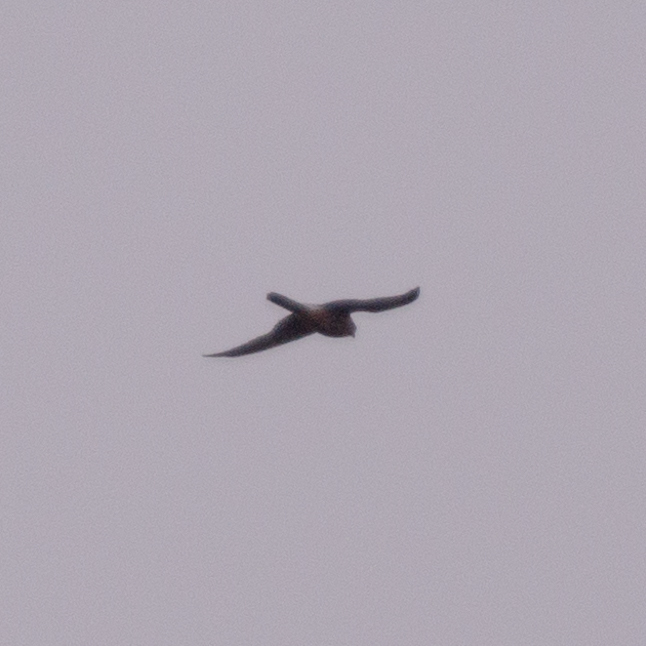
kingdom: Animalia
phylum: Chordata
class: Aves
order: Falconiformes
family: Falconidae
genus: Falco
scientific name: Falco tinnunculus
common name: Common kestrel
